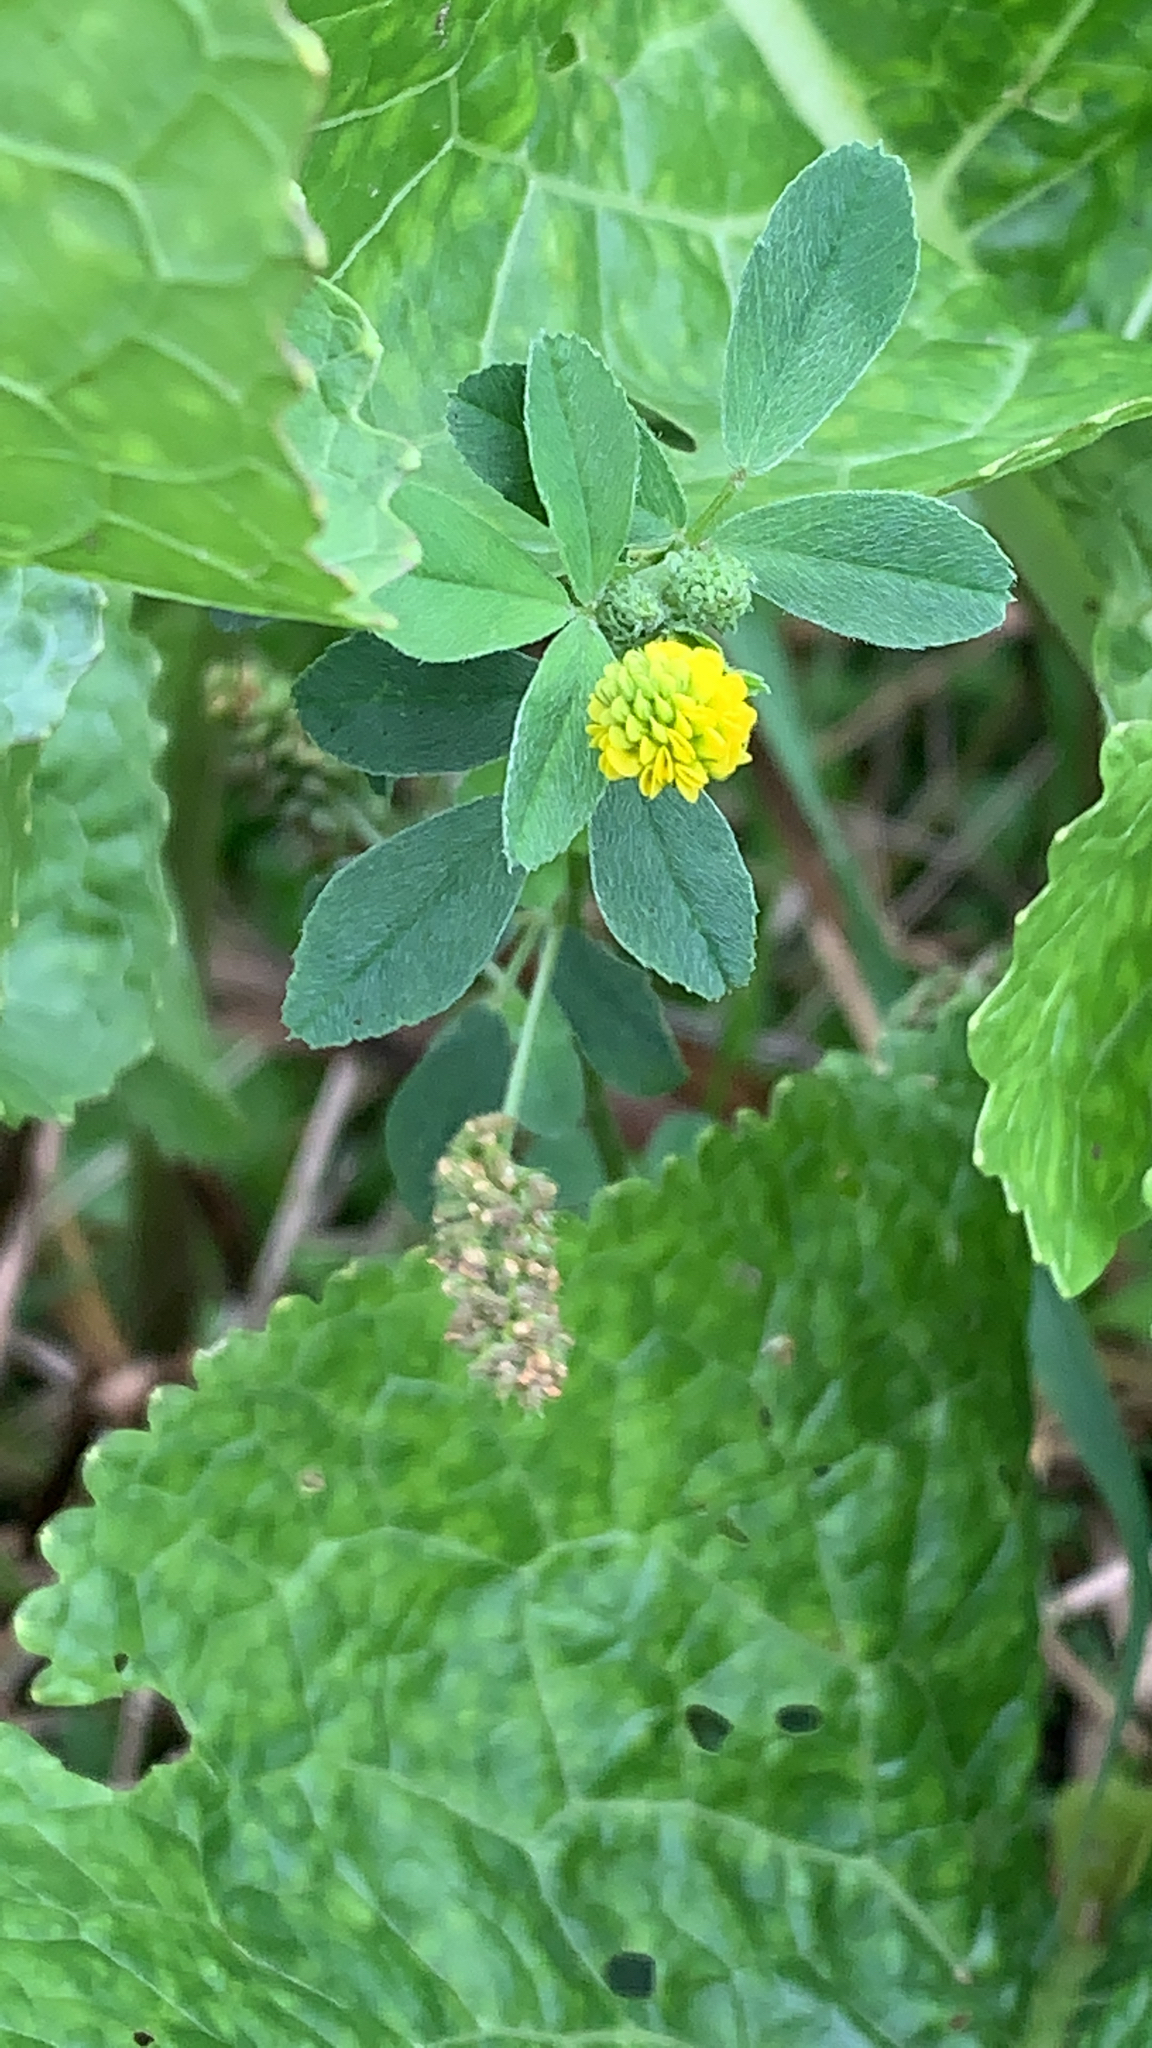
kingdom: Plantae
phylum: Tracheophyta
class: Magnoliopsida
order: Fabales
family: Fabaceae
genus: Medicago
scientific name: Medicago lupulina
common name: Black medick
